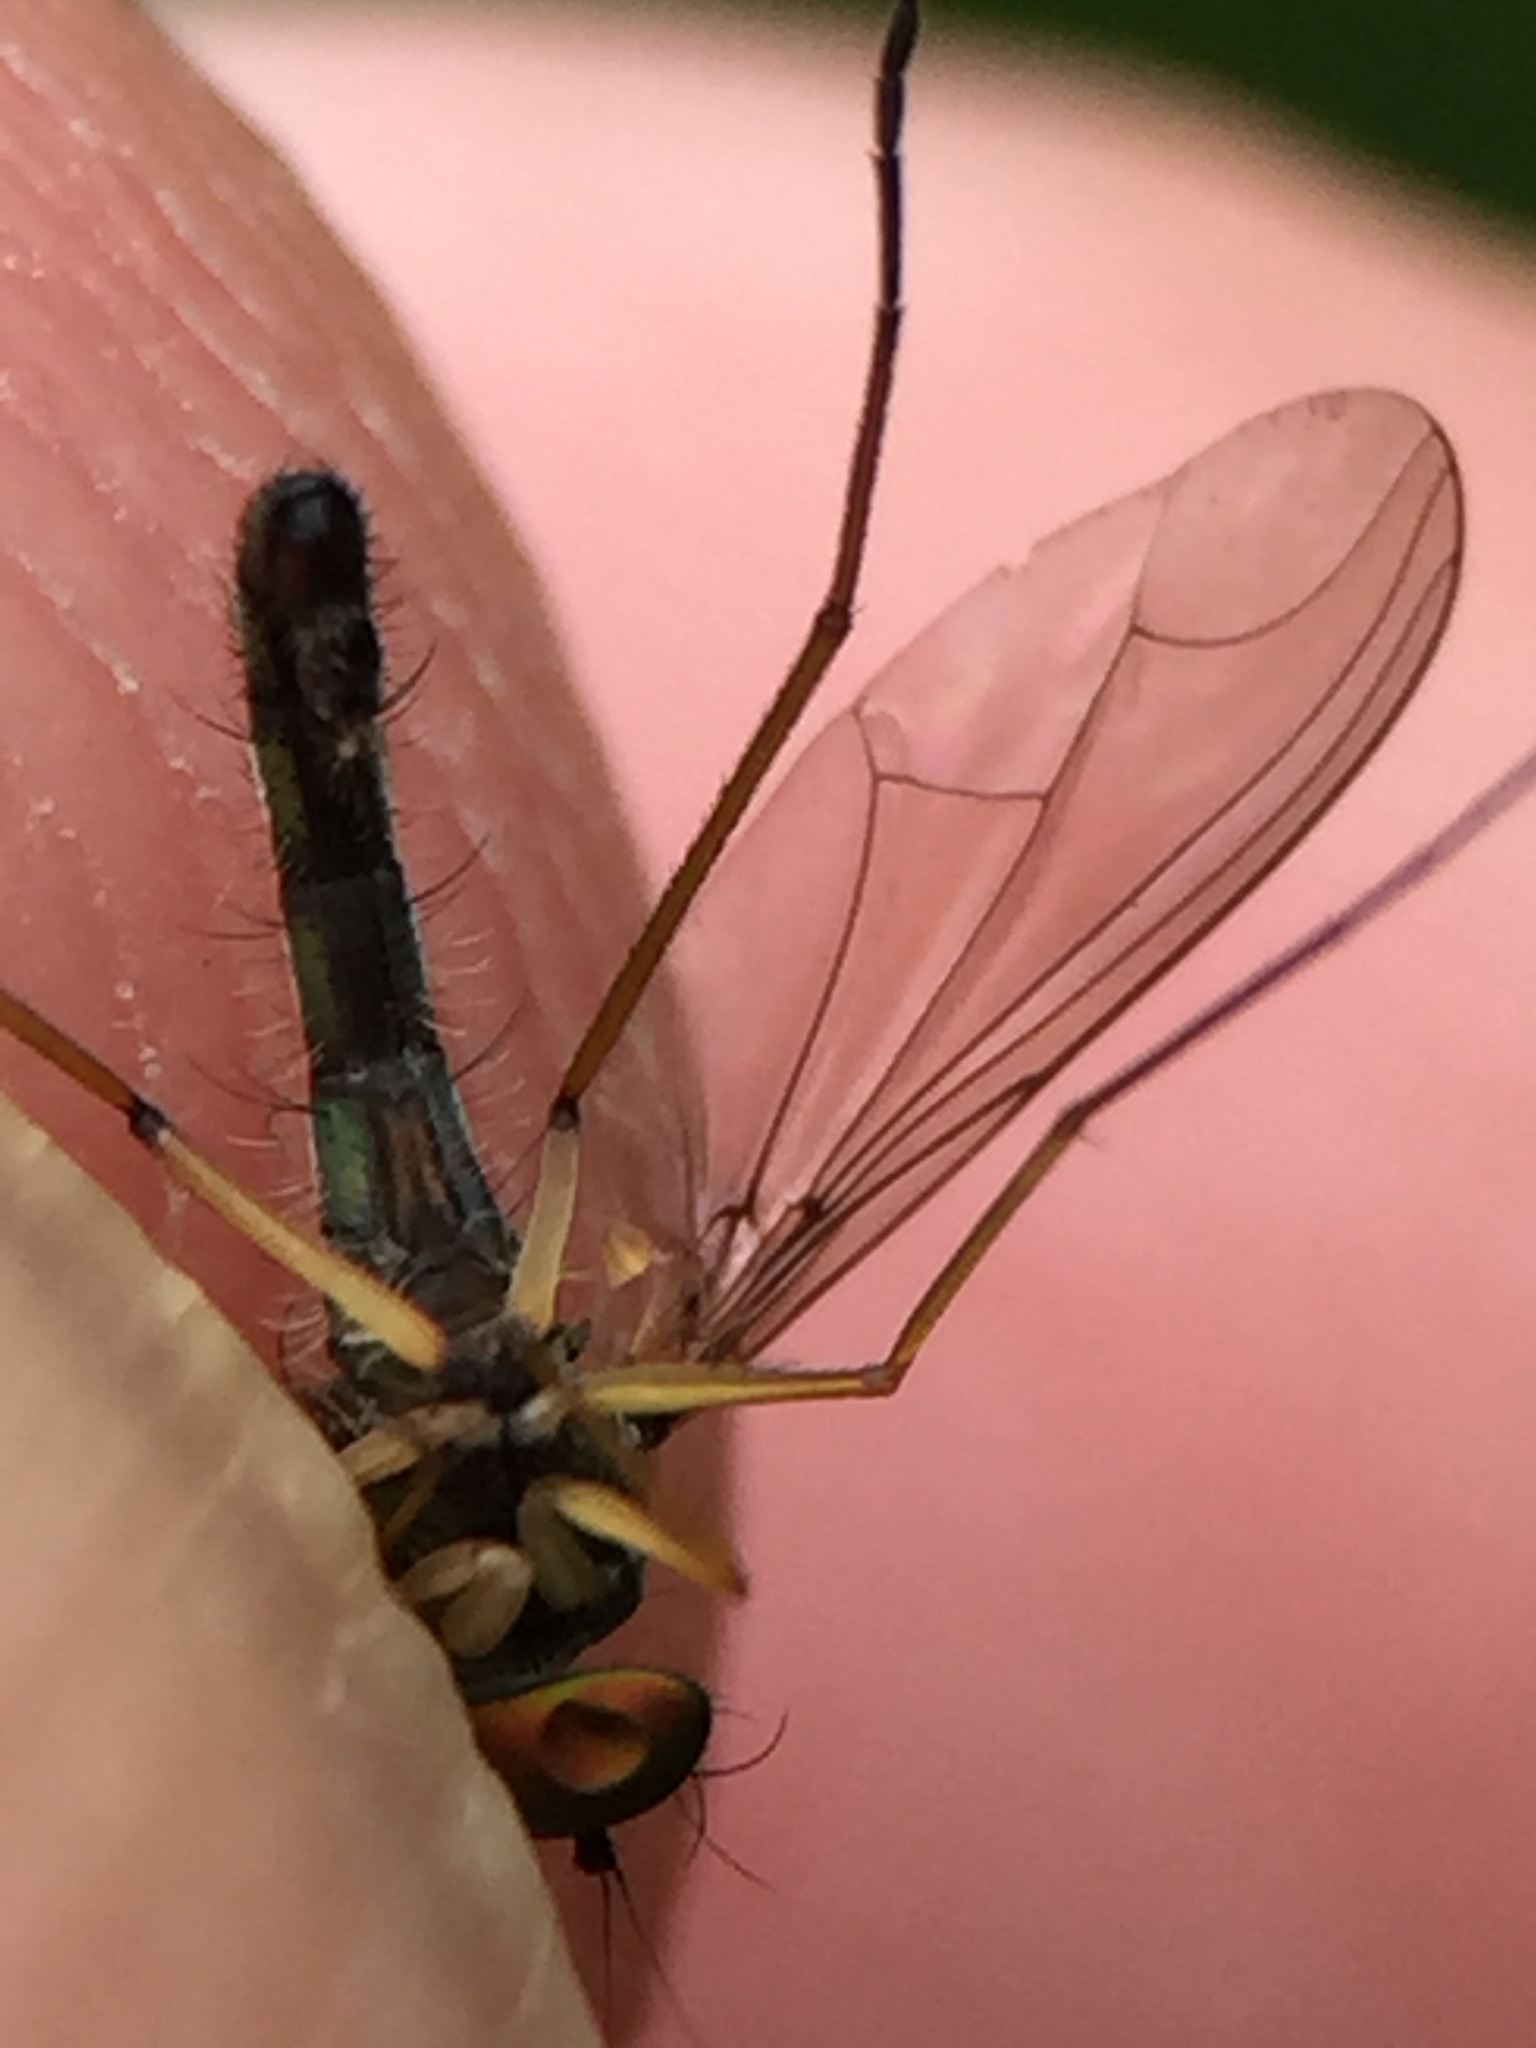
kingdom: Animalia
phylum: Arthropoda
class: Insecta
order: Diptera
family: Dolichopodidae
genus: Parentia
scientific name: Parentia titirangi
